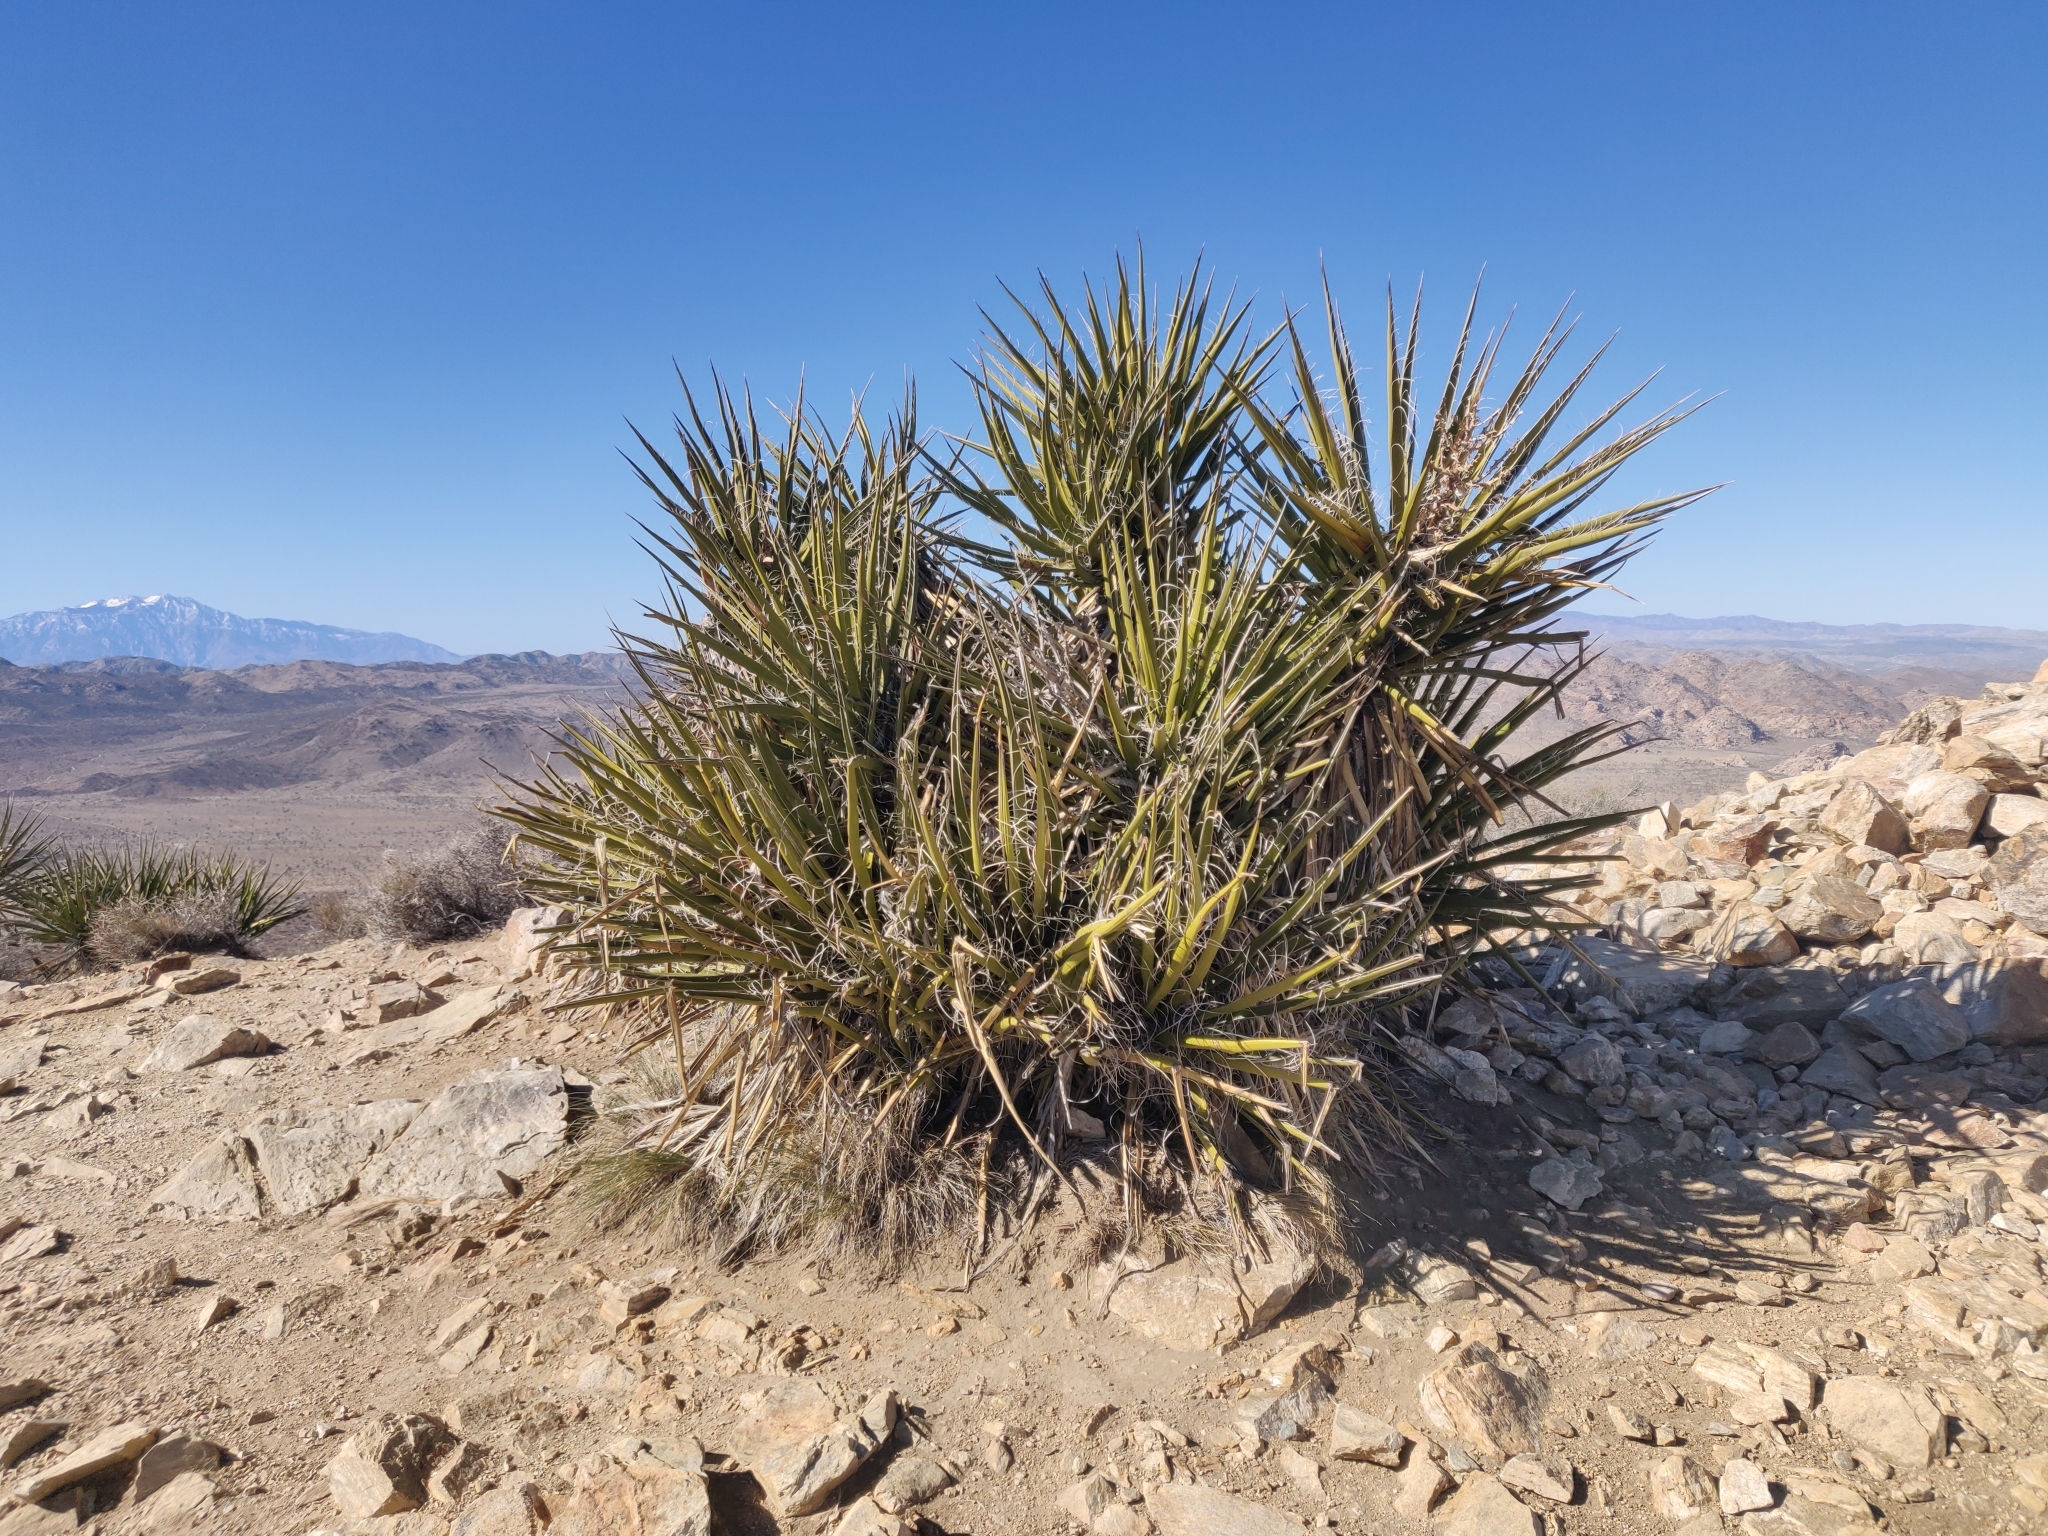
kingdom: Plantae
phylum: Tracheophyta
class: Liliopsida
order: Asparagales
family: Asparagaceae
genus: Yucca
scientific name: Yucca schidigera
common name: Mojave yucca
